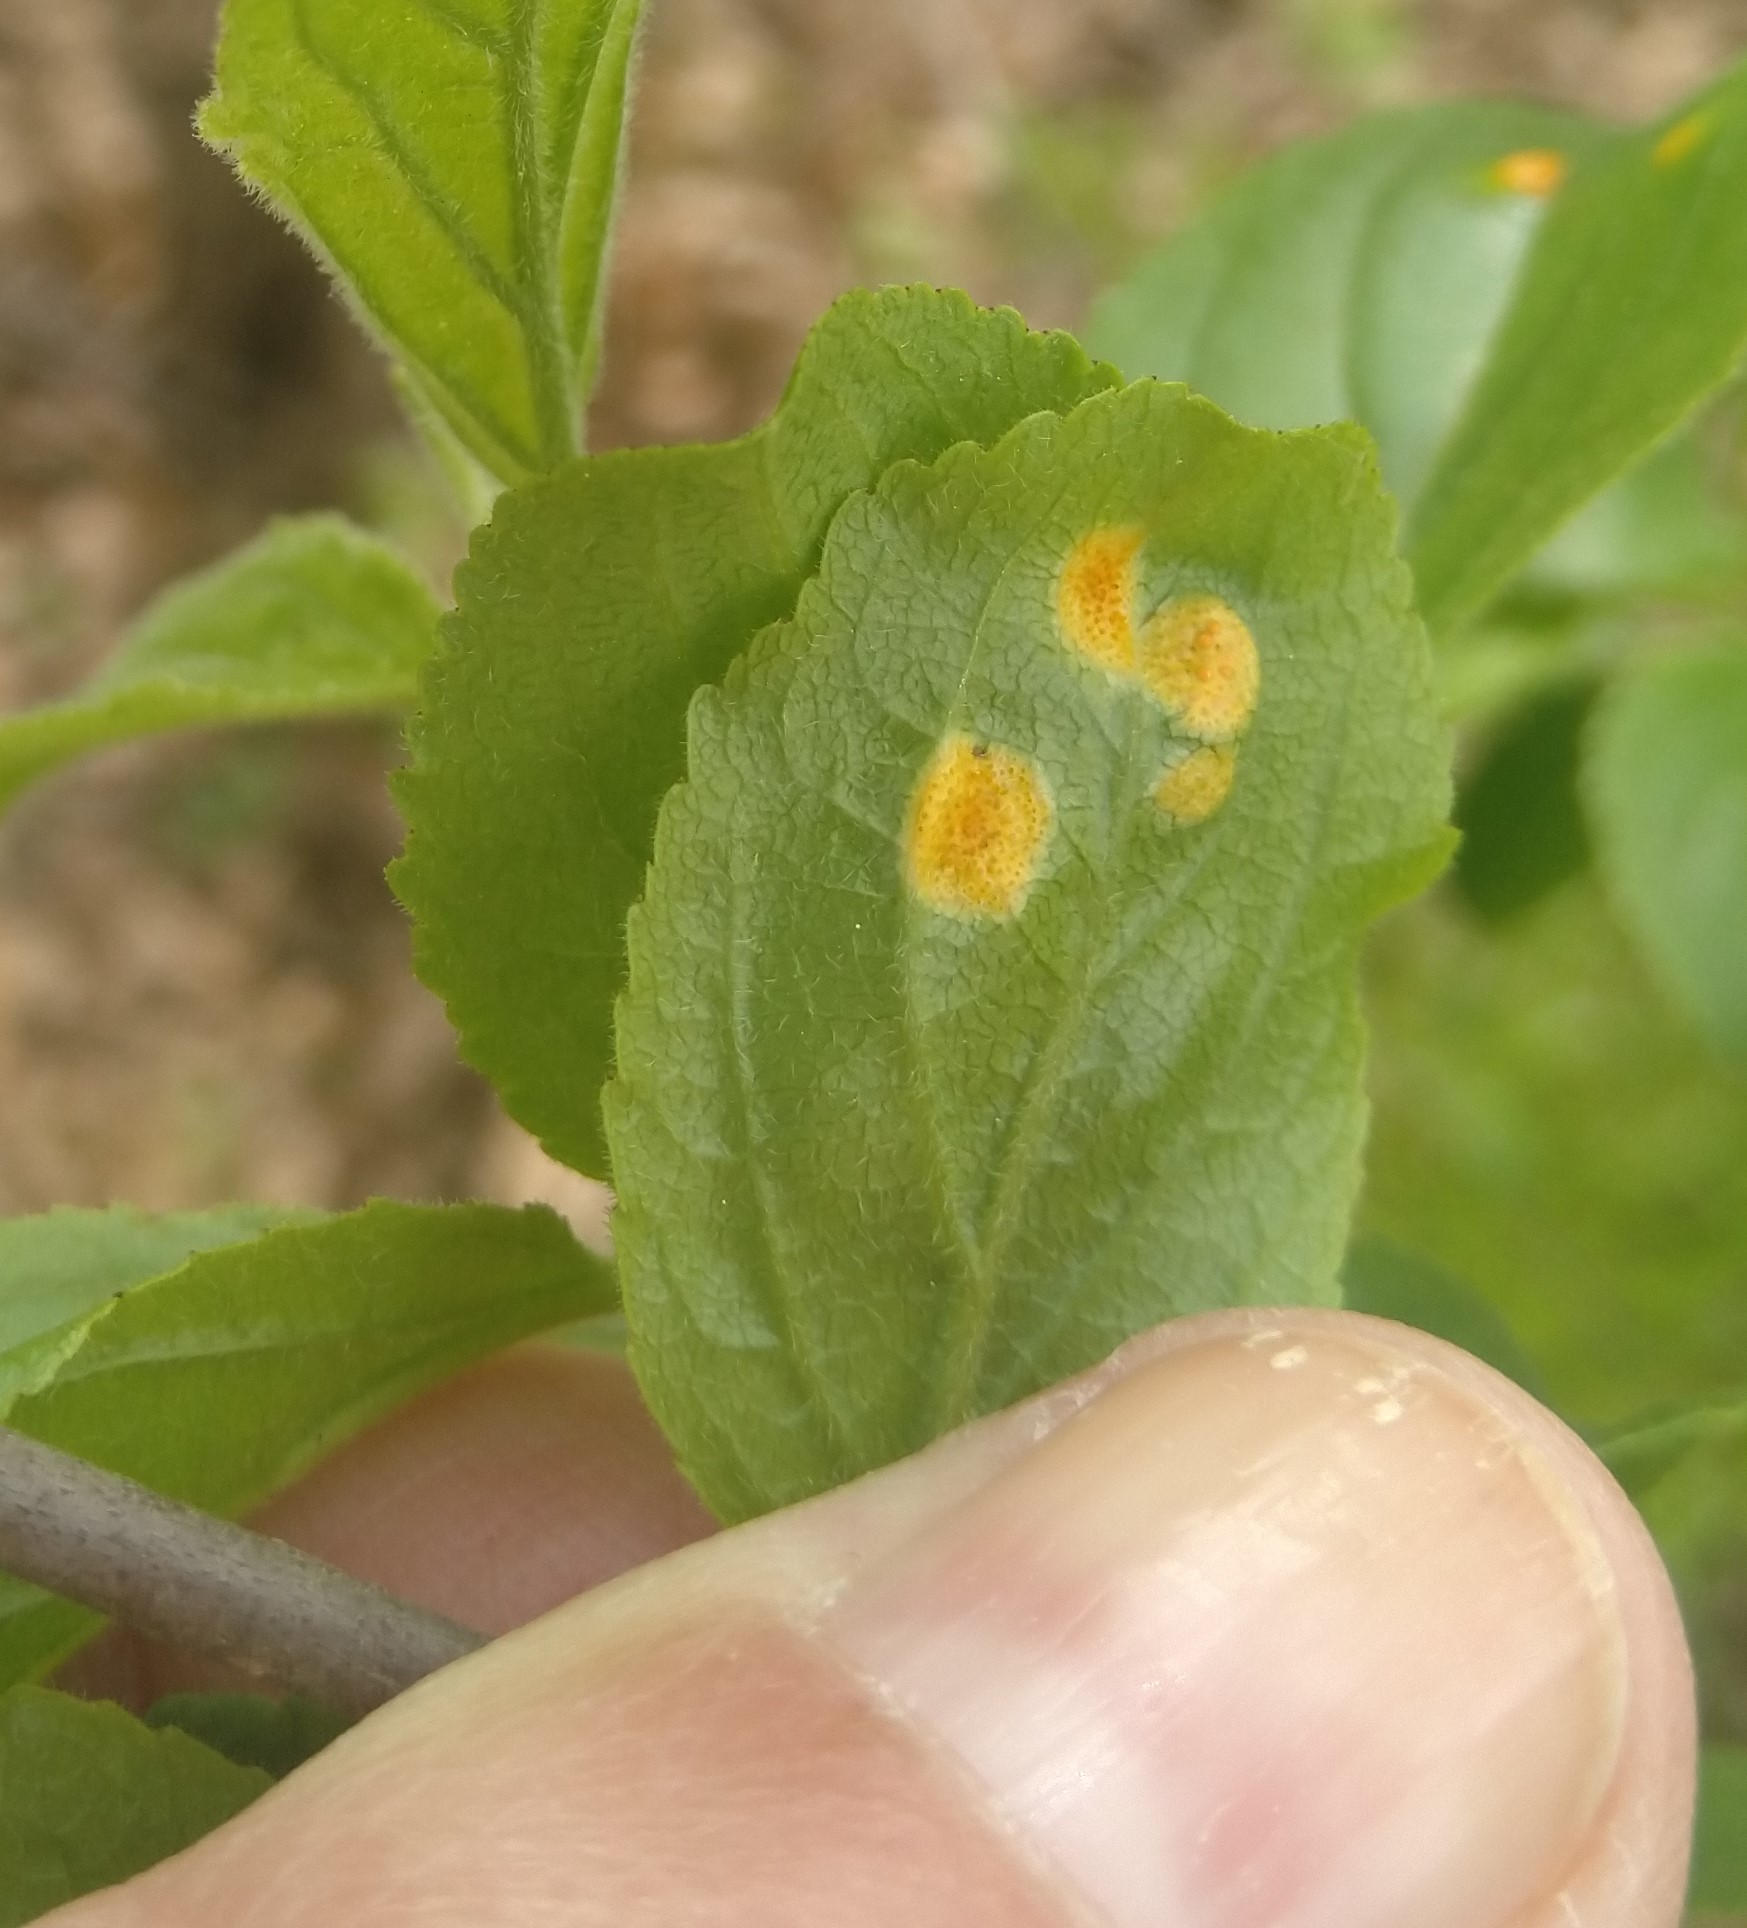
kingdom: Fungi
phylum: Basidiomycota
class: Pucciniomycetes
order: Pucciniales
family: Pucciniaceae
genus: Puccinia
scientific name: Puccinia coronata
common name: Crown rust
